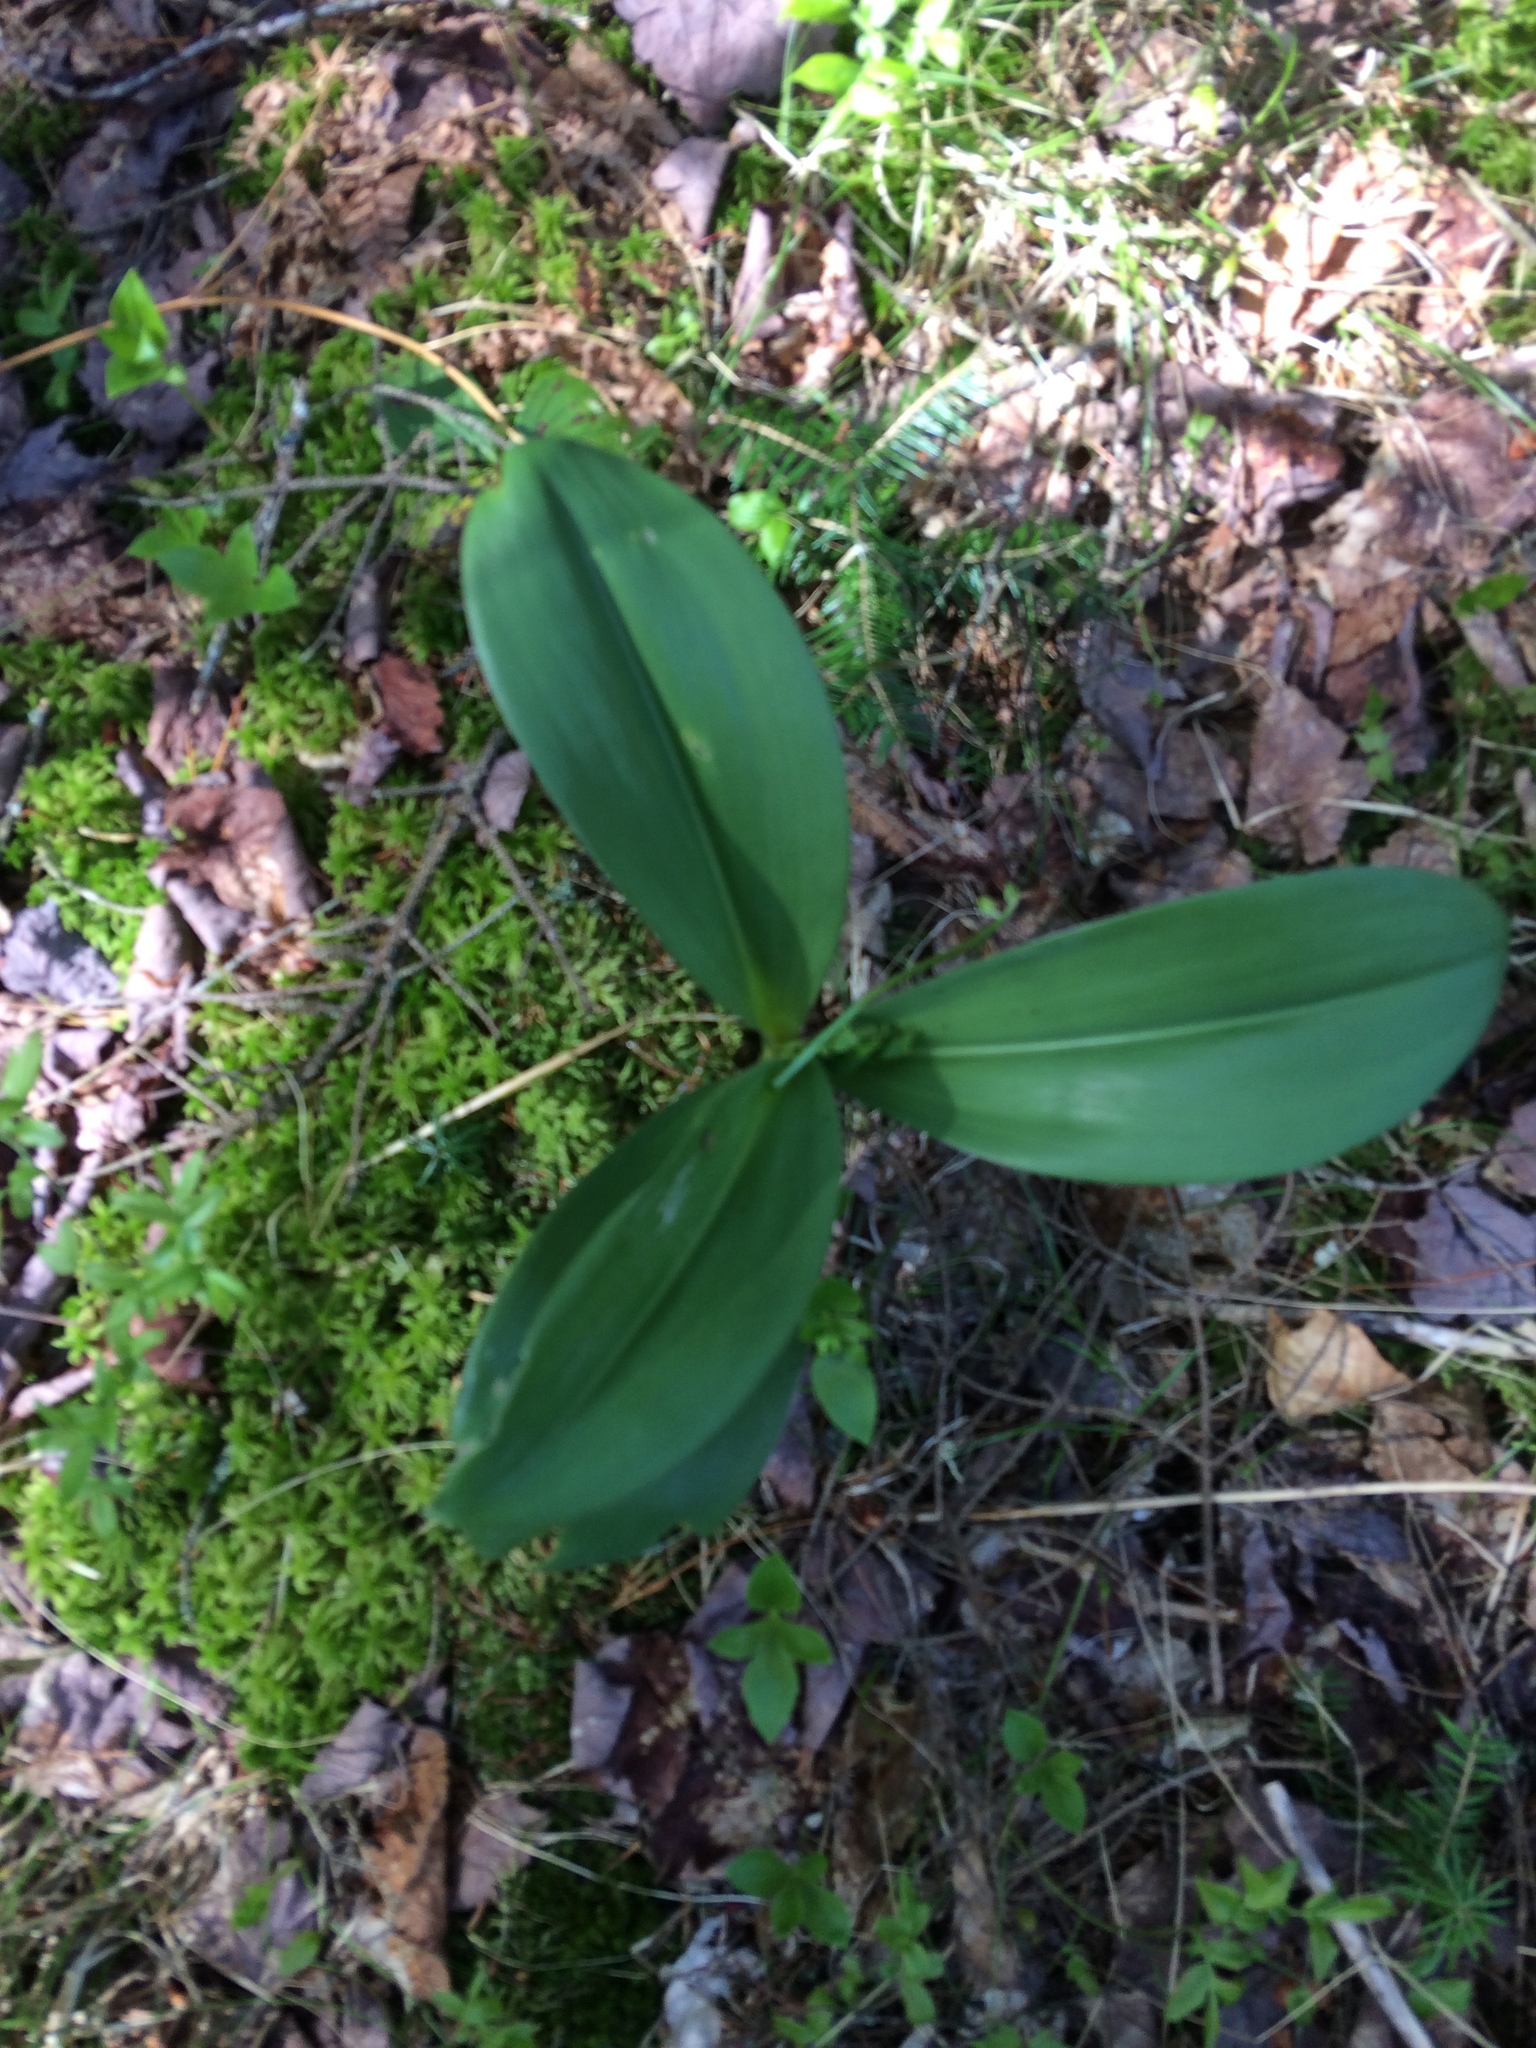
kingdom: Plantae
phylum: Tracheophyta
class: Liliopsida
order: Liliales
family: Liliaceae
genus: Clintonia
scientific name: Clintonia borealis
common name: Yellow clintonia
